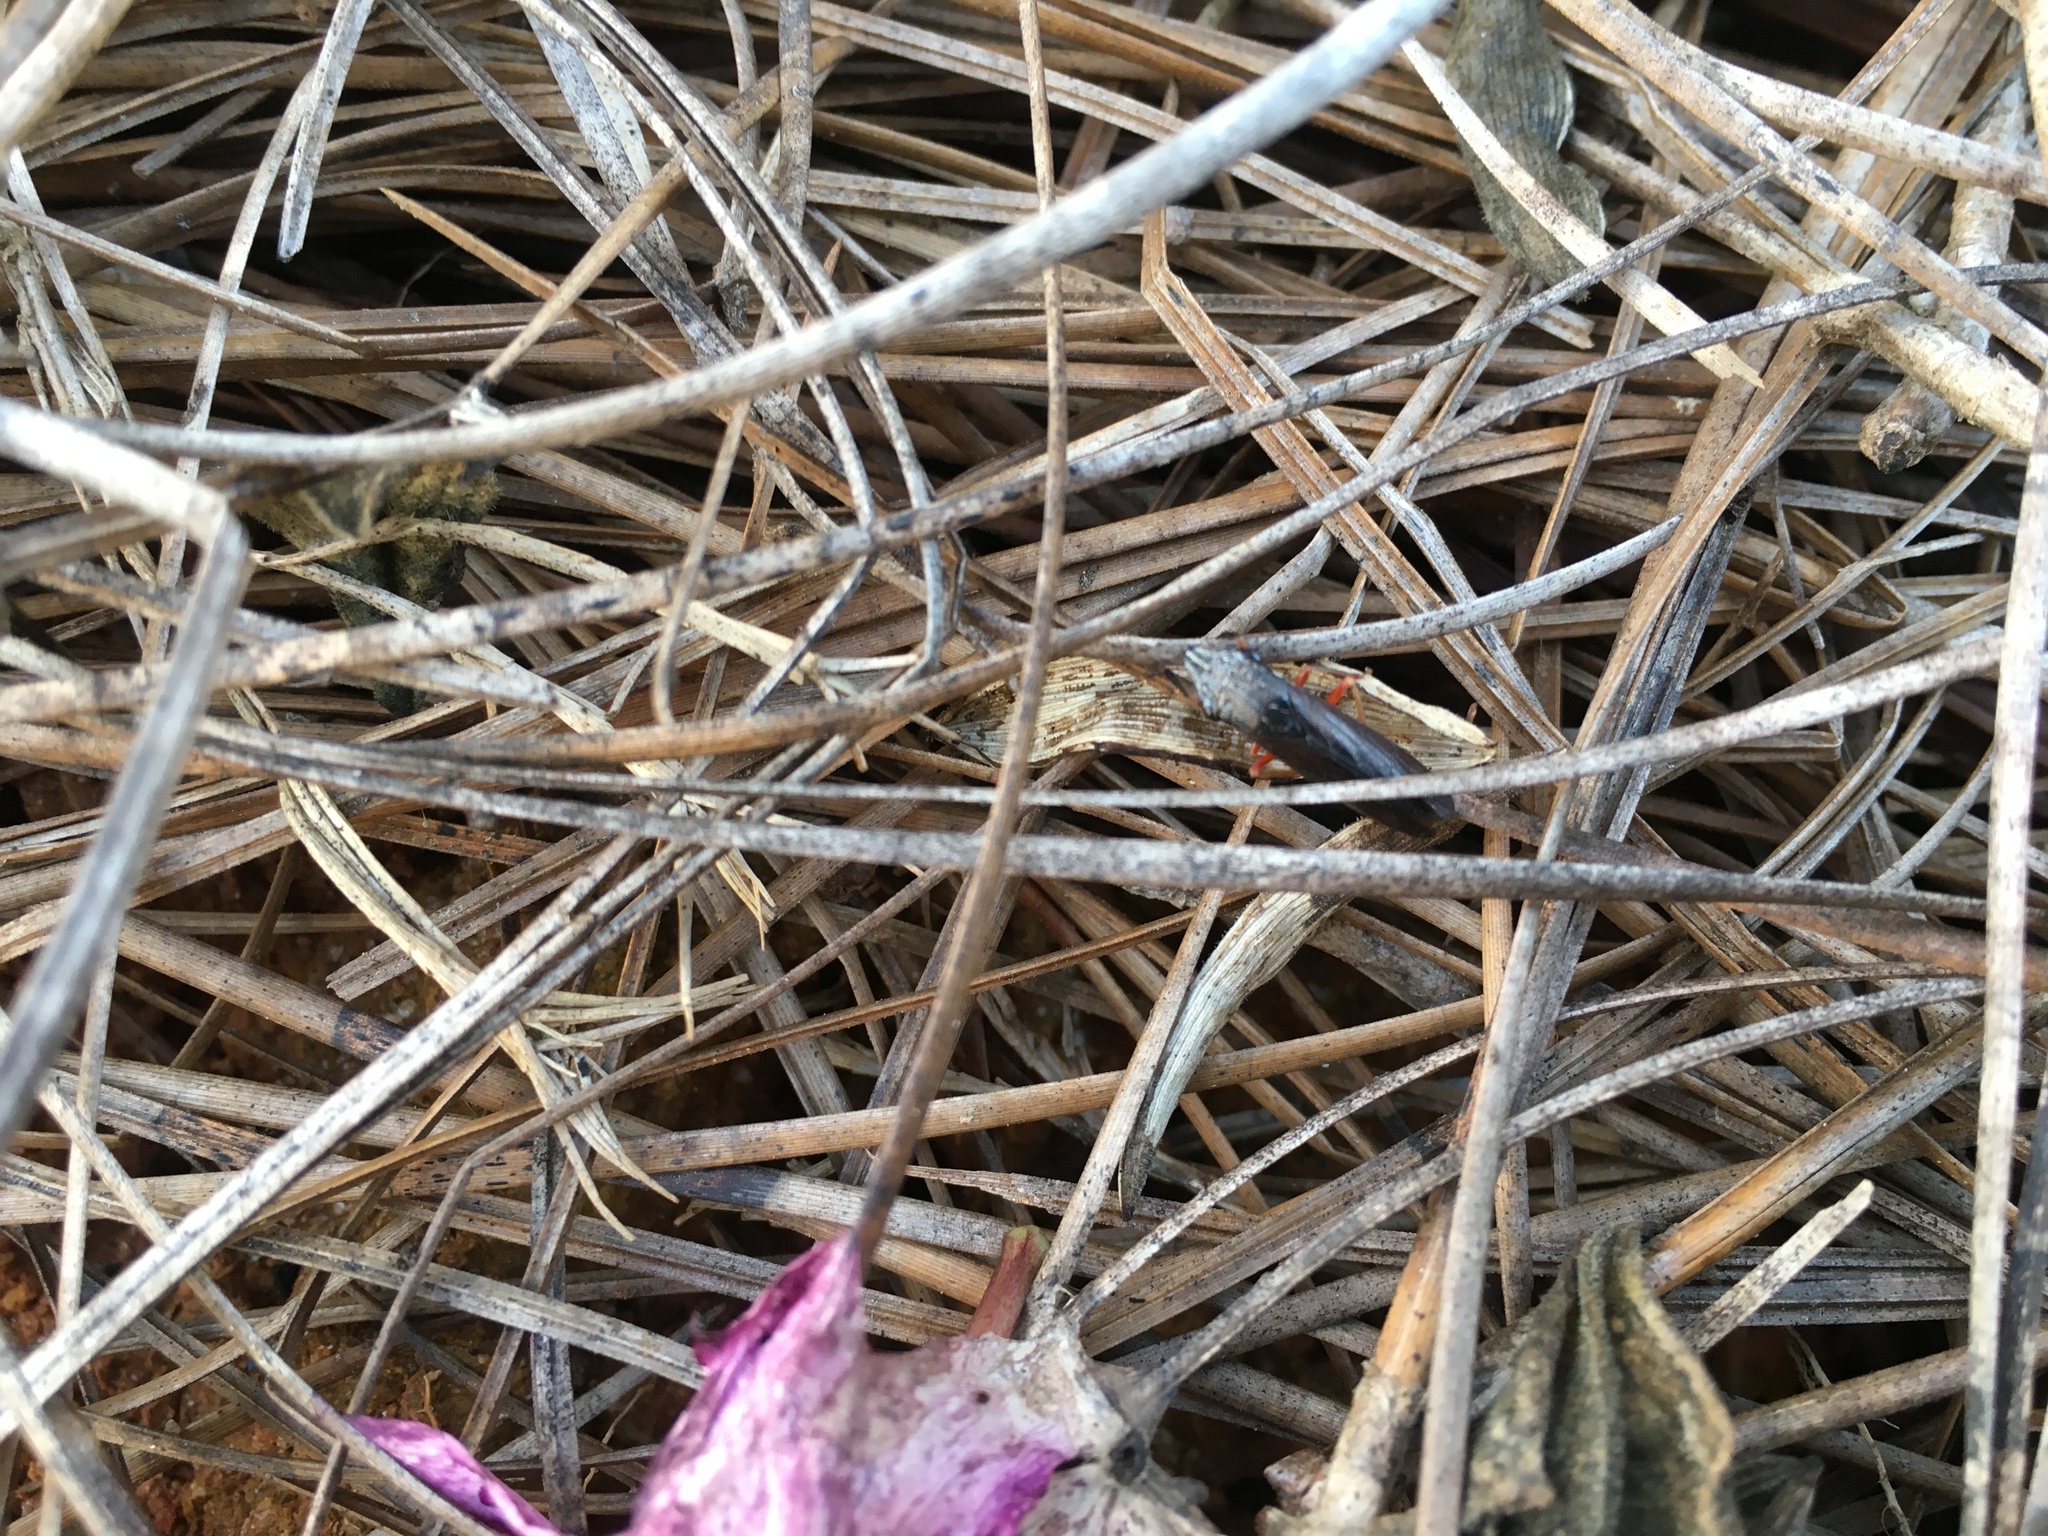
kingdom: Animalia
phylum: Arthropoda
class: Insecta
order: Hemiptera
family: Cicadellidae
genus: Homalodisca
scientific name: Homalodisca insolita
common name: Johnson grass sharpshooter
